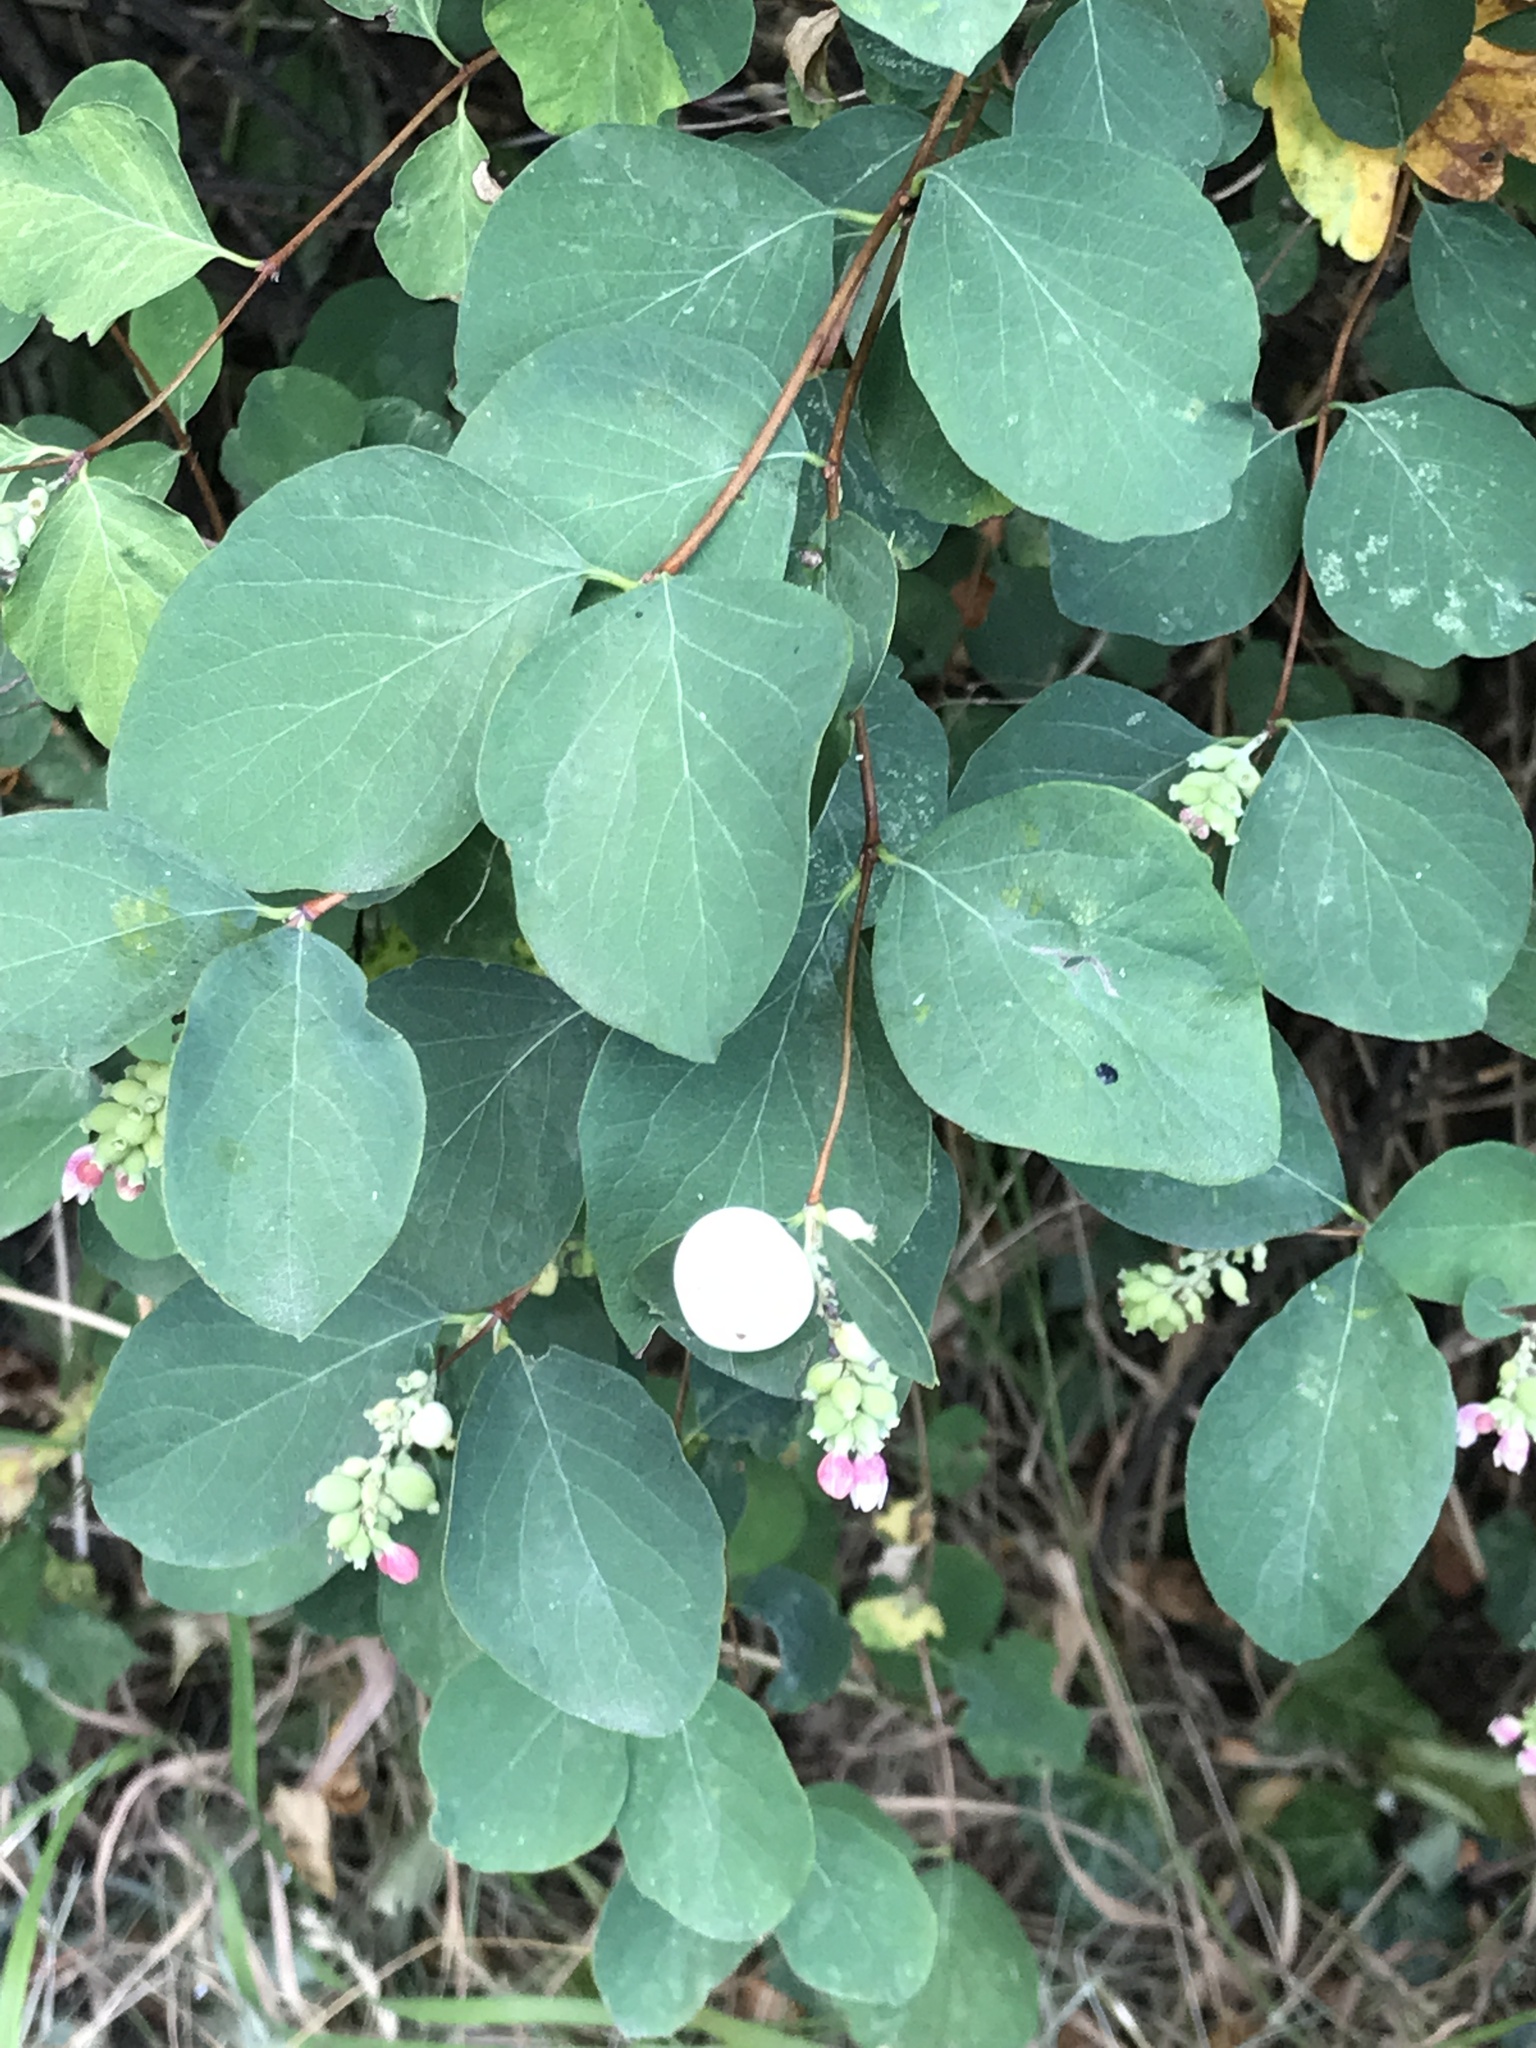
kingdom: Plantae
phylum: Tracheophyta
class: Magnoliopsida
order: Dipsacales
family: Caprifoliaceae
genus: Symphoricarpos
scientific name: Symphoricarpos albus
